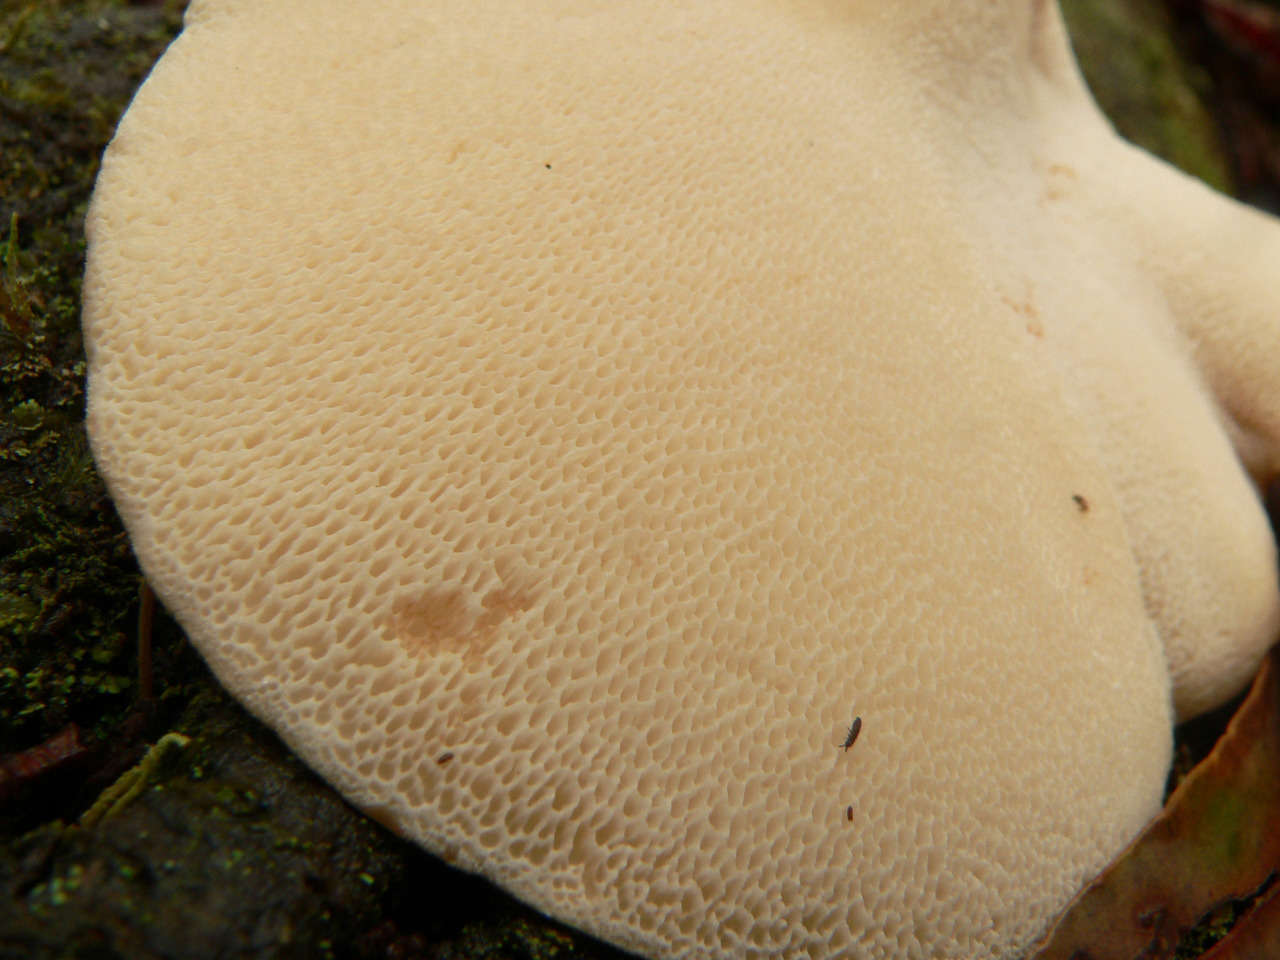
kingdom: Fungi
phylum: Basidiomycota
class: Agaricomycetes
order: Polyporales
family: Fomitopsidaceae
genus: Fomitopsis
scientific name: Fomitopsis
